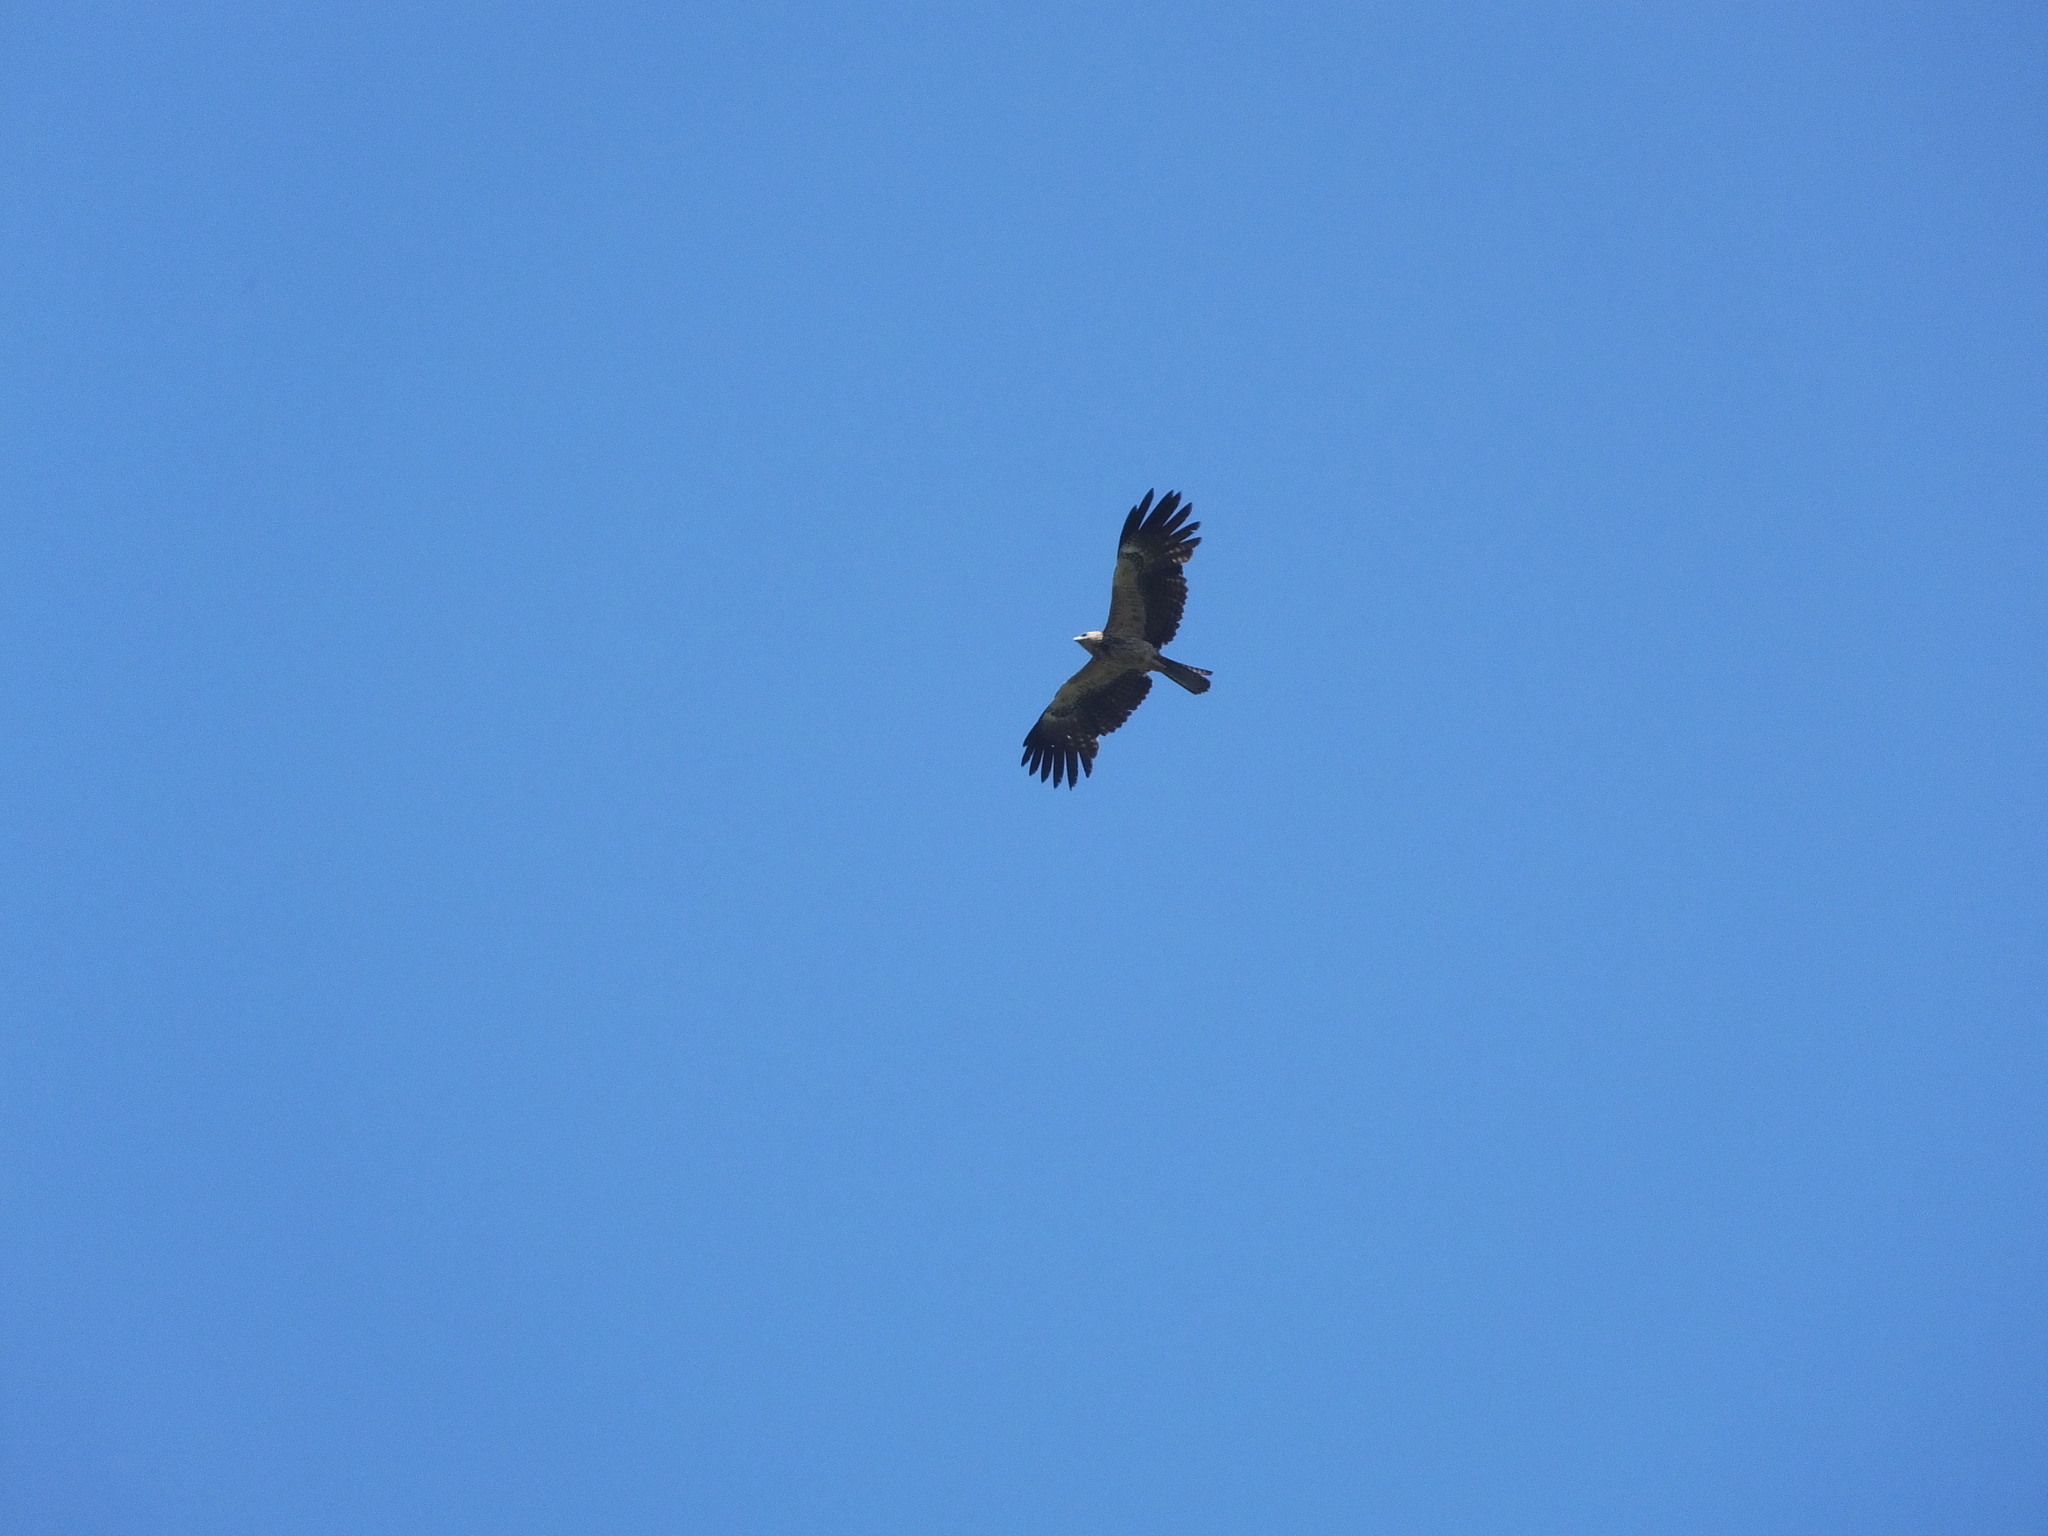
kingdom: Animalia
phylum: Chordata
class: Aves
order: Accipitriformes
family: Accipitridae
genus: Ictinaetus
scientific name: Ictinaetus malayensis
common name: Black eagle
